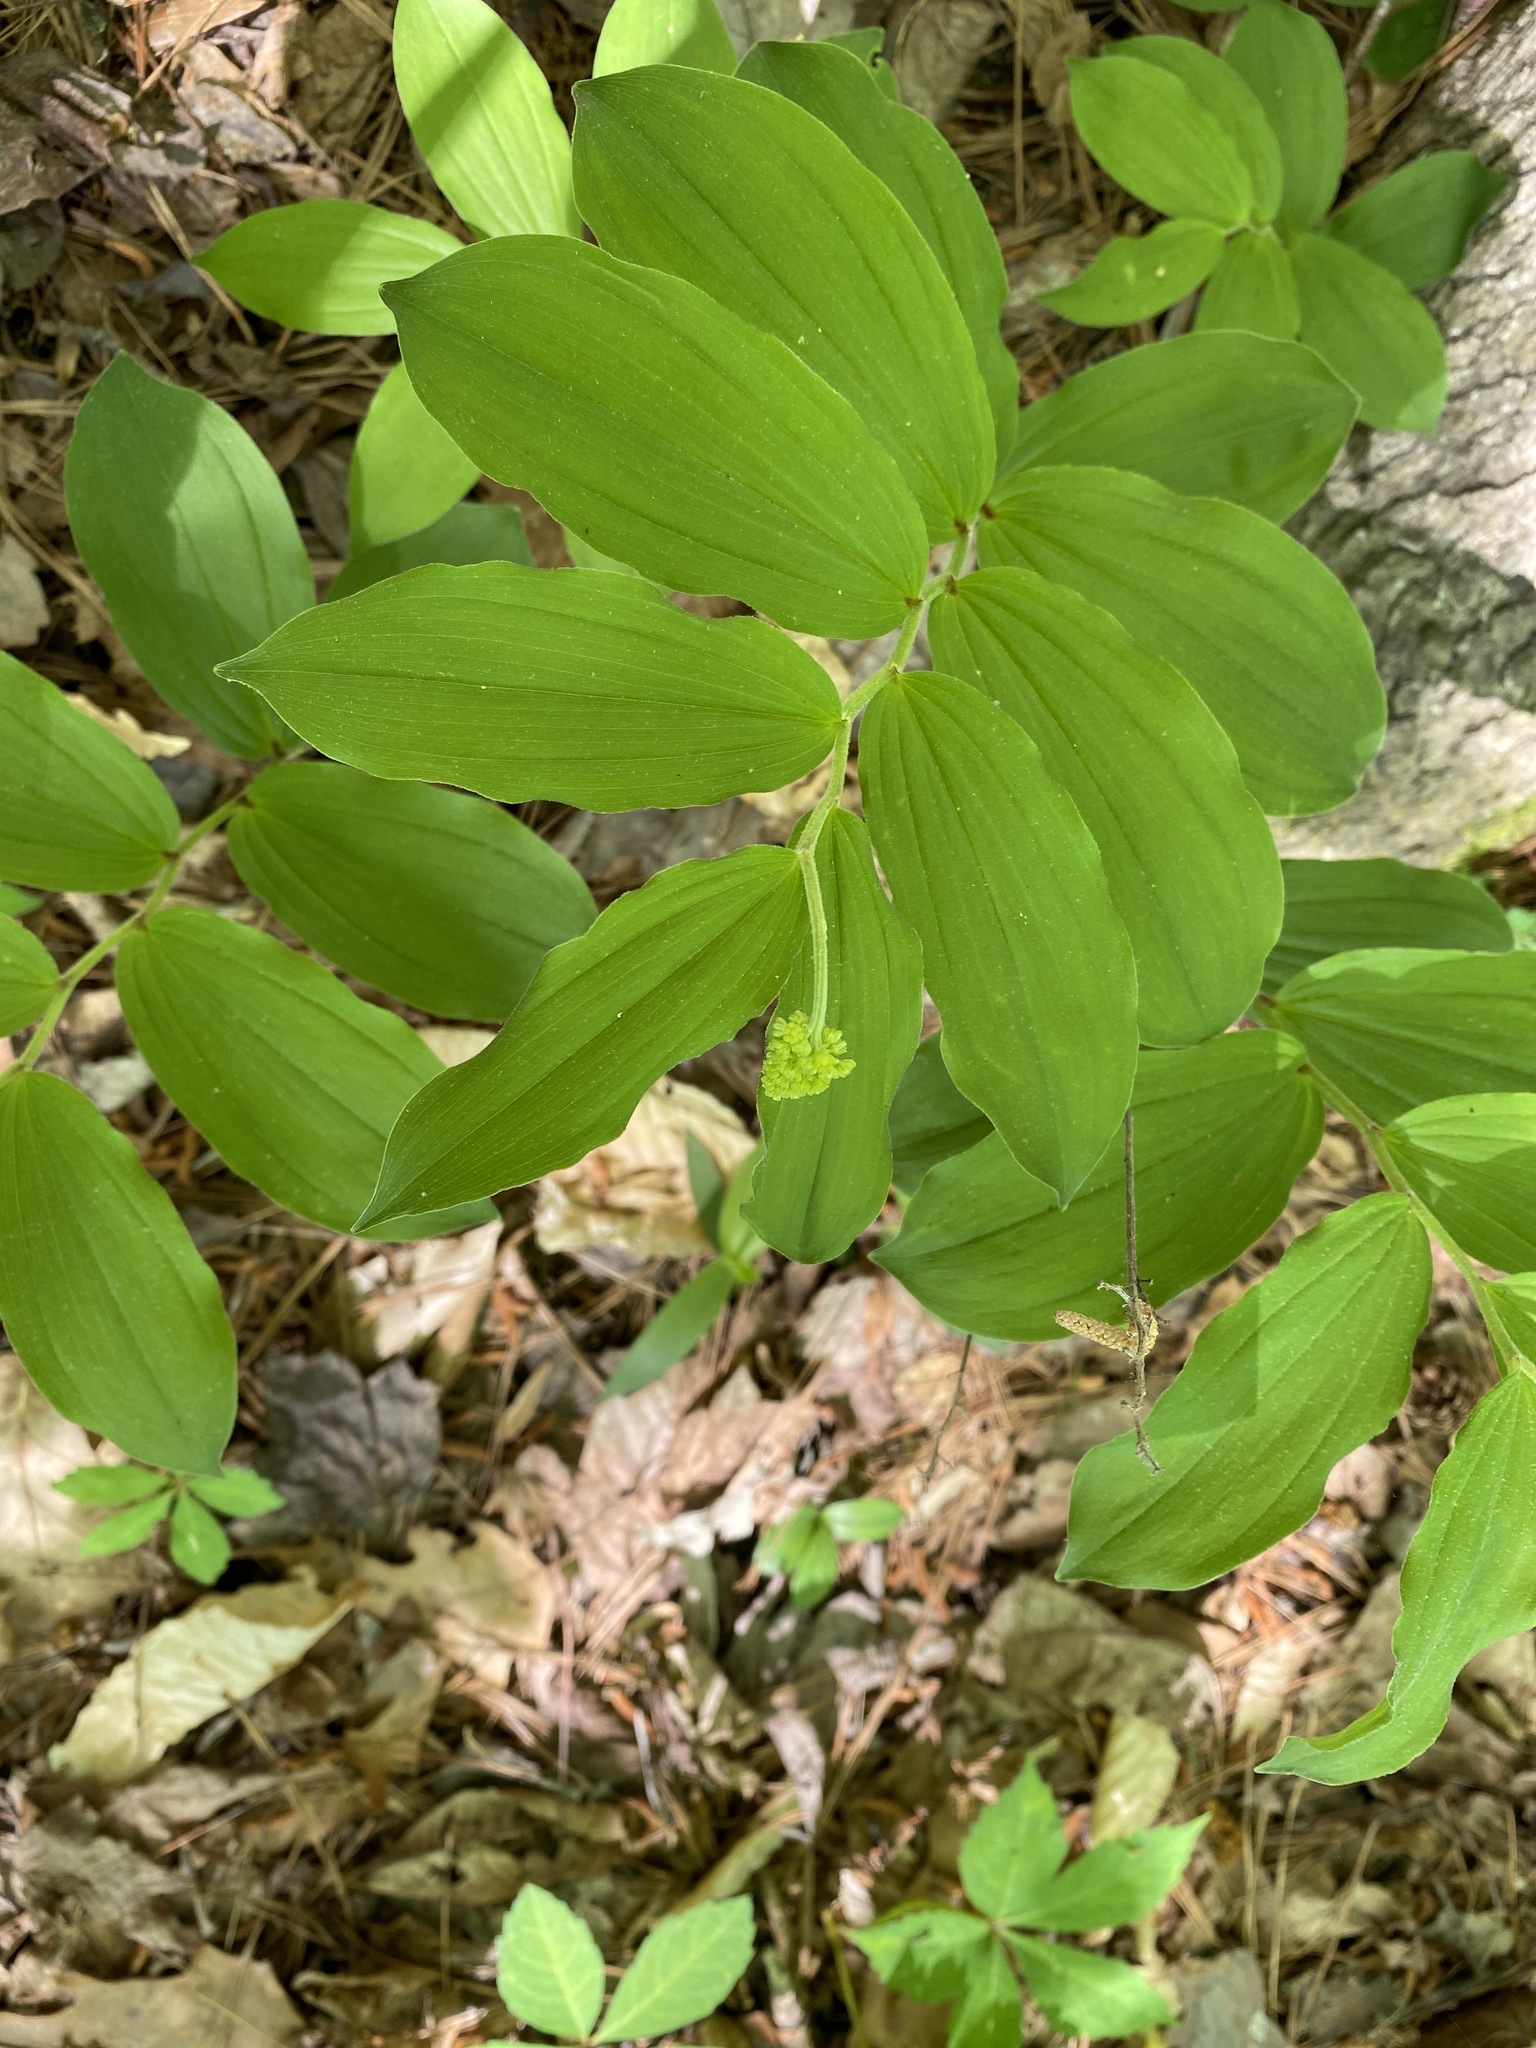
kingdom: Plantae
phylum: Tracheophyta
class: Liliopsida
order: Asparagales
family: Asparagaceae
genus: Maianthemum
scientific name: Maianthemum racemosum
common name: False spikenard
